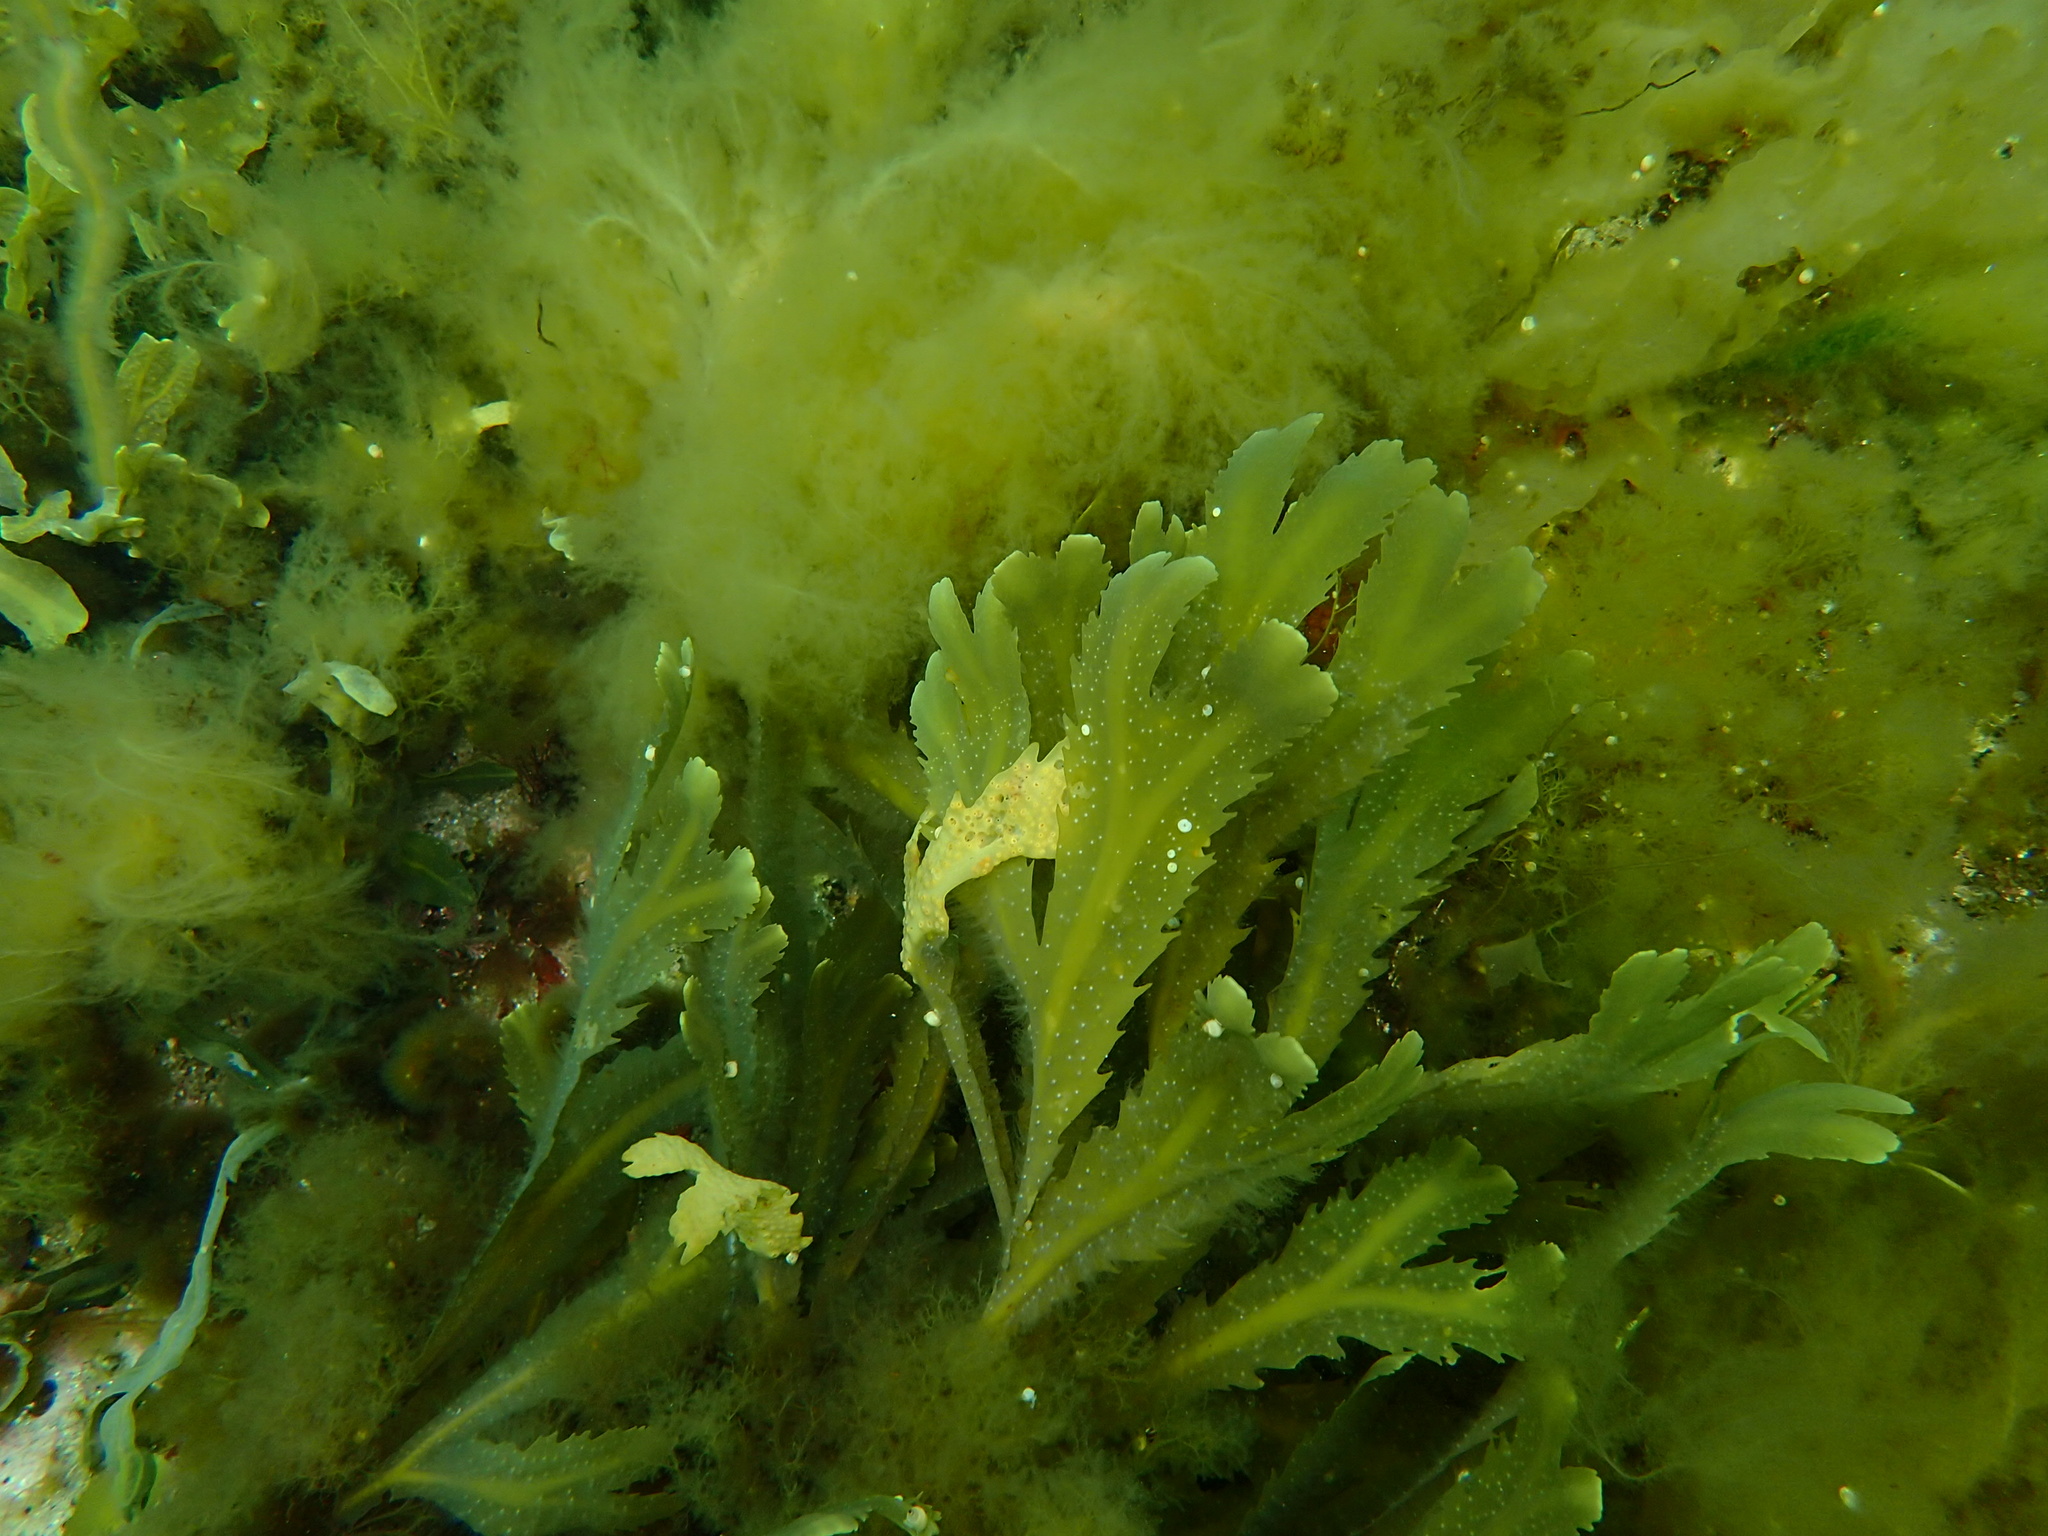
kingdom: Chromista
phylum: Ochrophyta
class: Phaeophyceae
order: Fucales
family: Fucaceae
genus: Fucus
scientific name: Fucus serratus
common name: Toothed wrack
